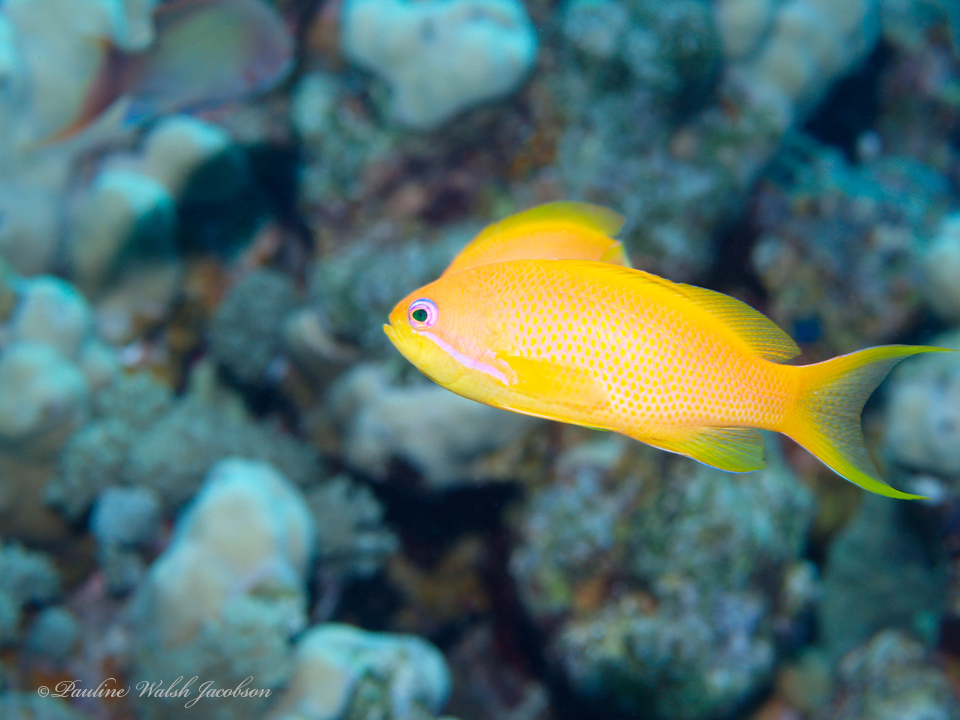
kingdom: Animalia
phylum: Chordata
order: Perciformes
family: Serranidae
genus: Pseudanthias
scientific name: Pseudanthias squamipinnis
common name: Scalefin anthias
